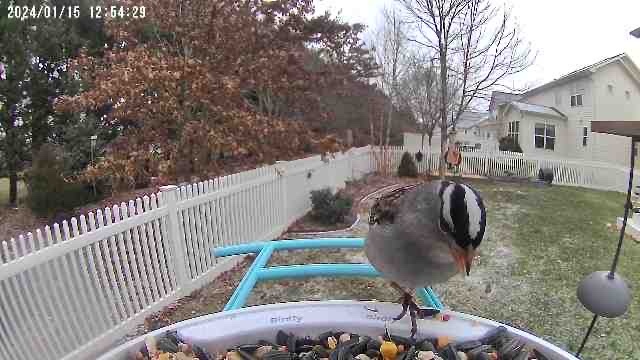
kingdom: Animalia
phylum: Chordata
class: Aves
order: Passeriformes
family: Passerellidae
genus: Zonotrichia
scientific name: Zonotrichia leucophrys
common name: White-crowned sparrow
